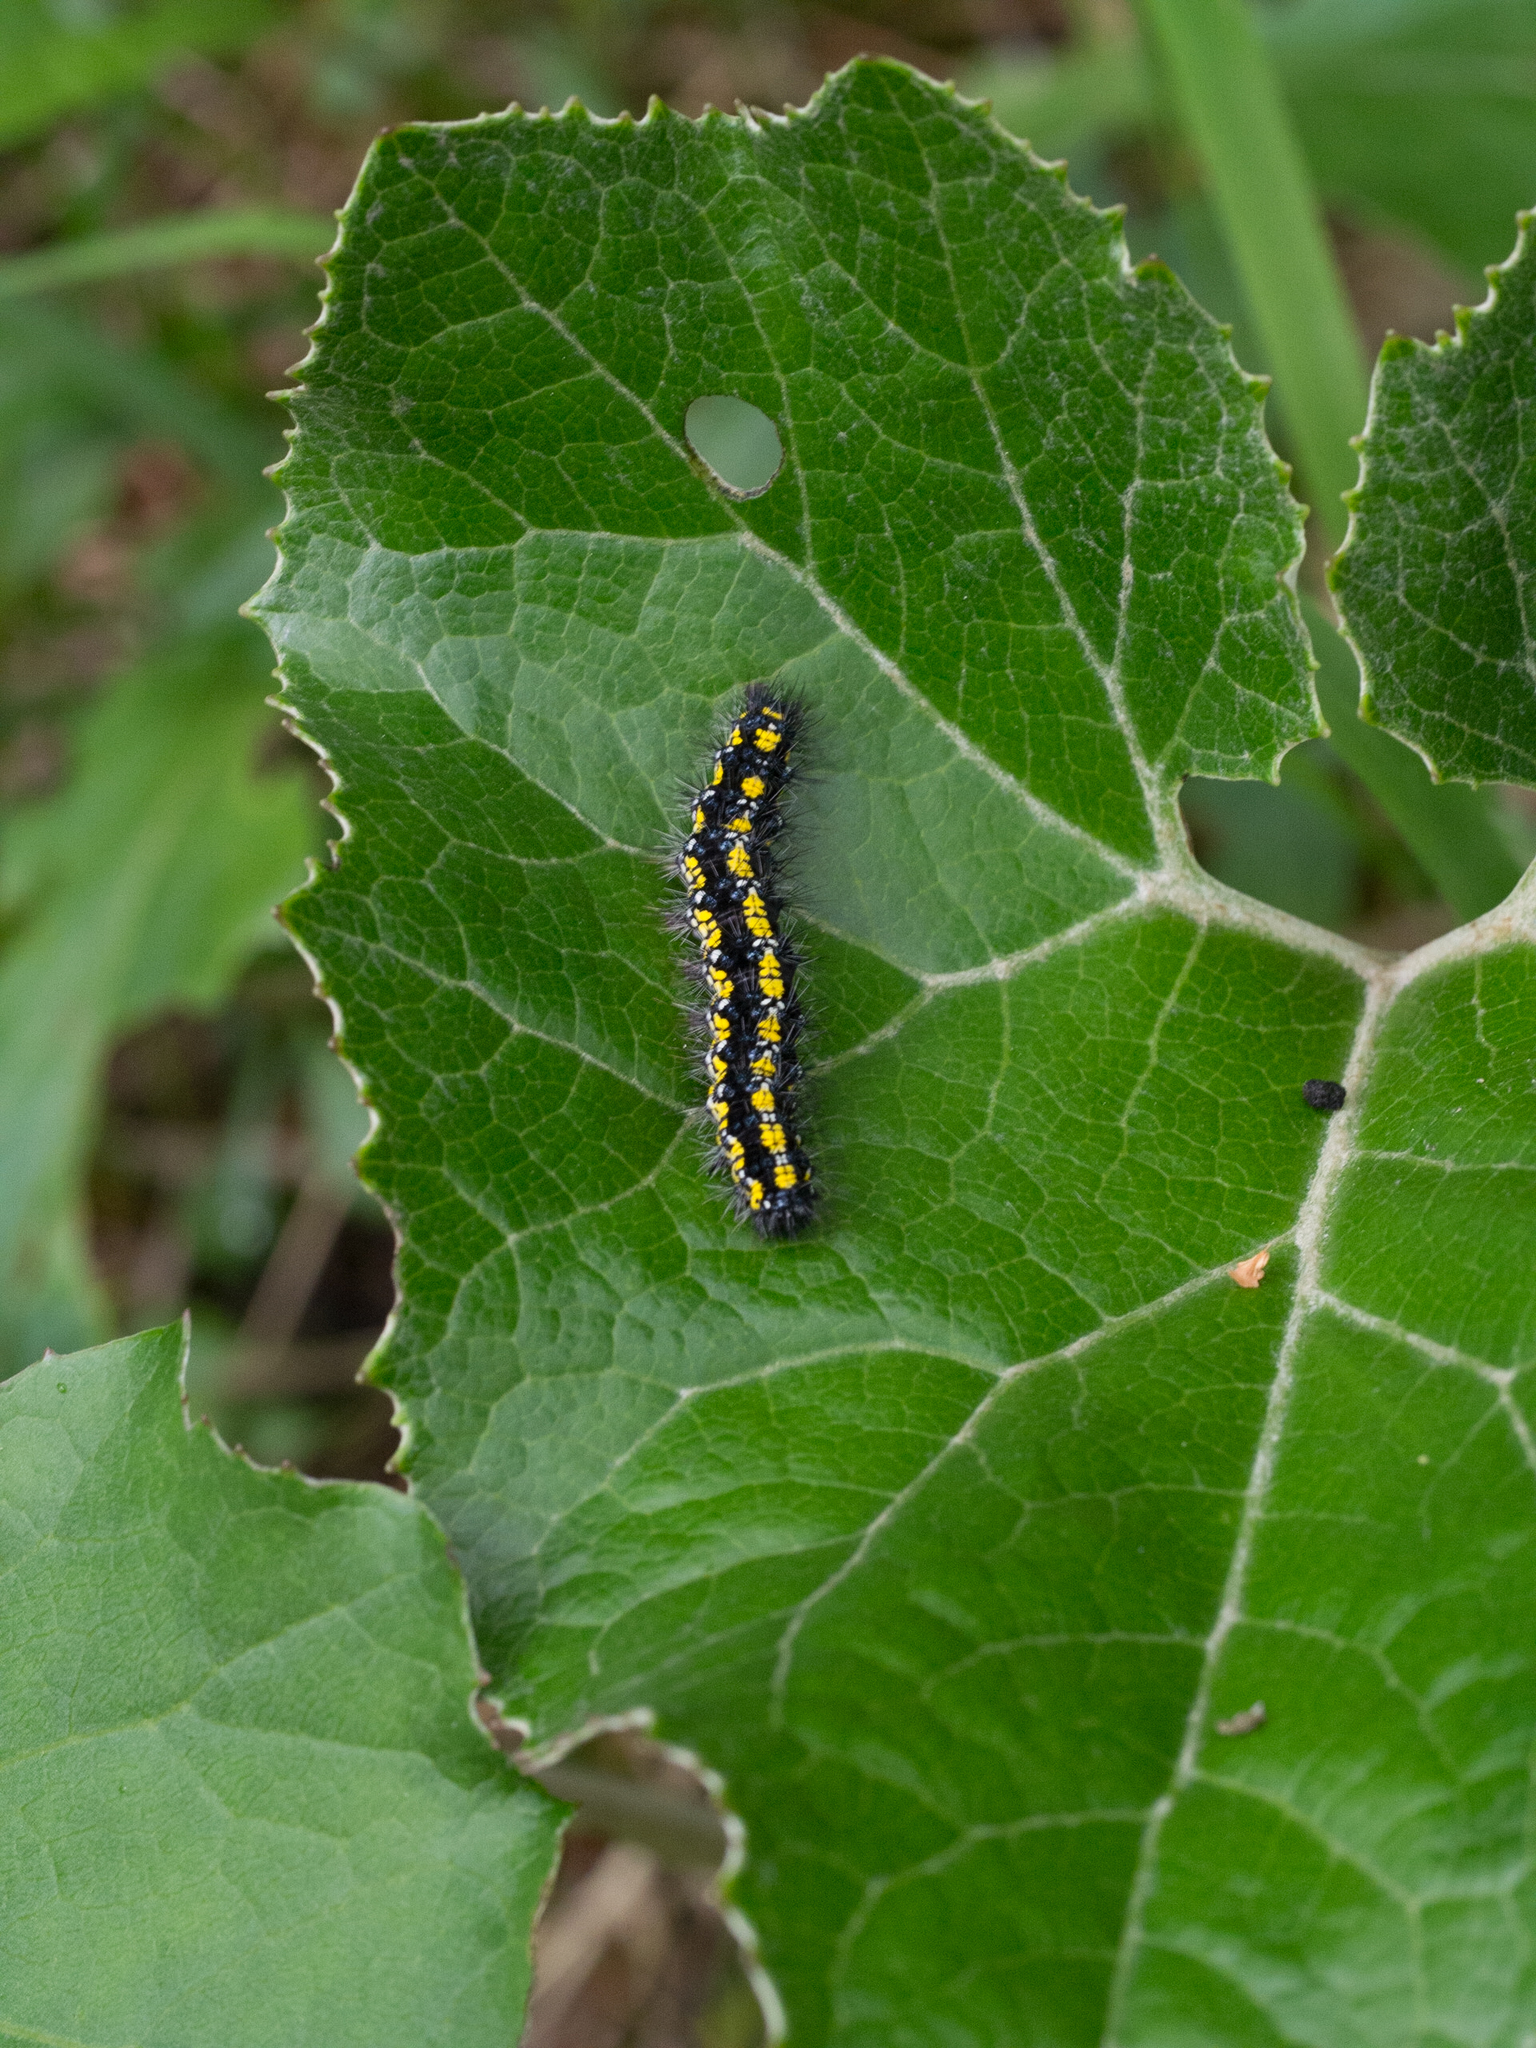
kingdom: Animalia
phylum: Arthropoda
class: Insecta
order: Lepidoptera
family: Erebidae
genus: Callimorpha
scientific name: Callimorpha dominula
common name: Scarlet tiger
